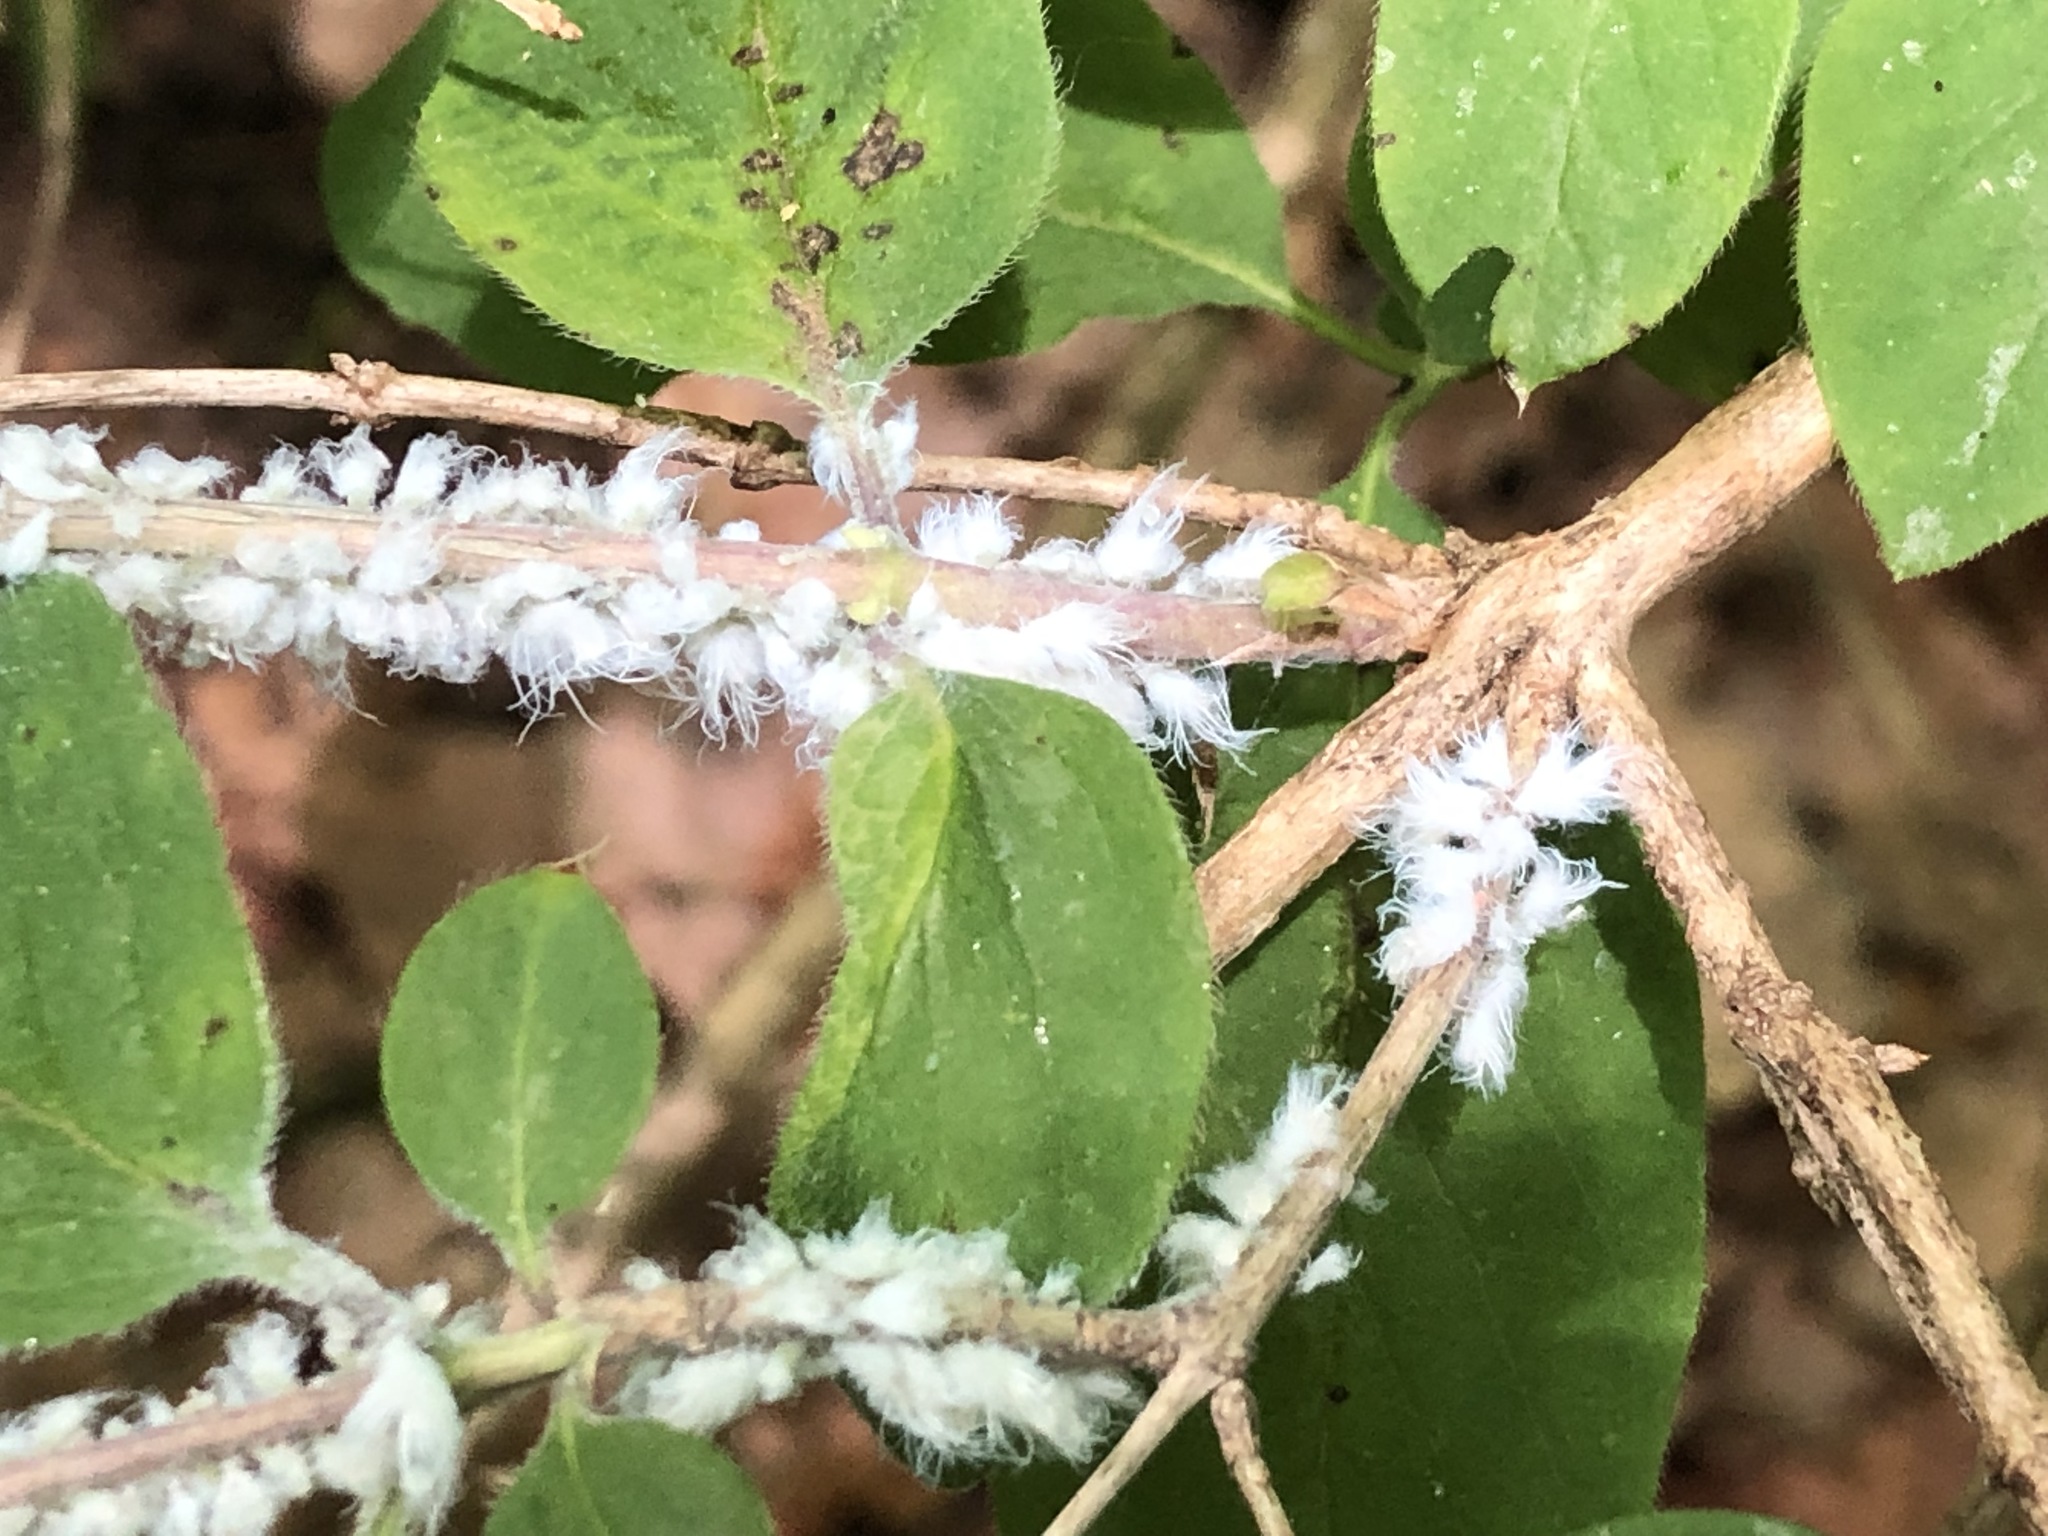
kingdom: Animalia
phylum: Arthropoda
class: Insecta
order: Hemiptera
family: Aphididae
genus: Prociphilus
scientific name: Prociphilus xylostei
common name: Aphid
